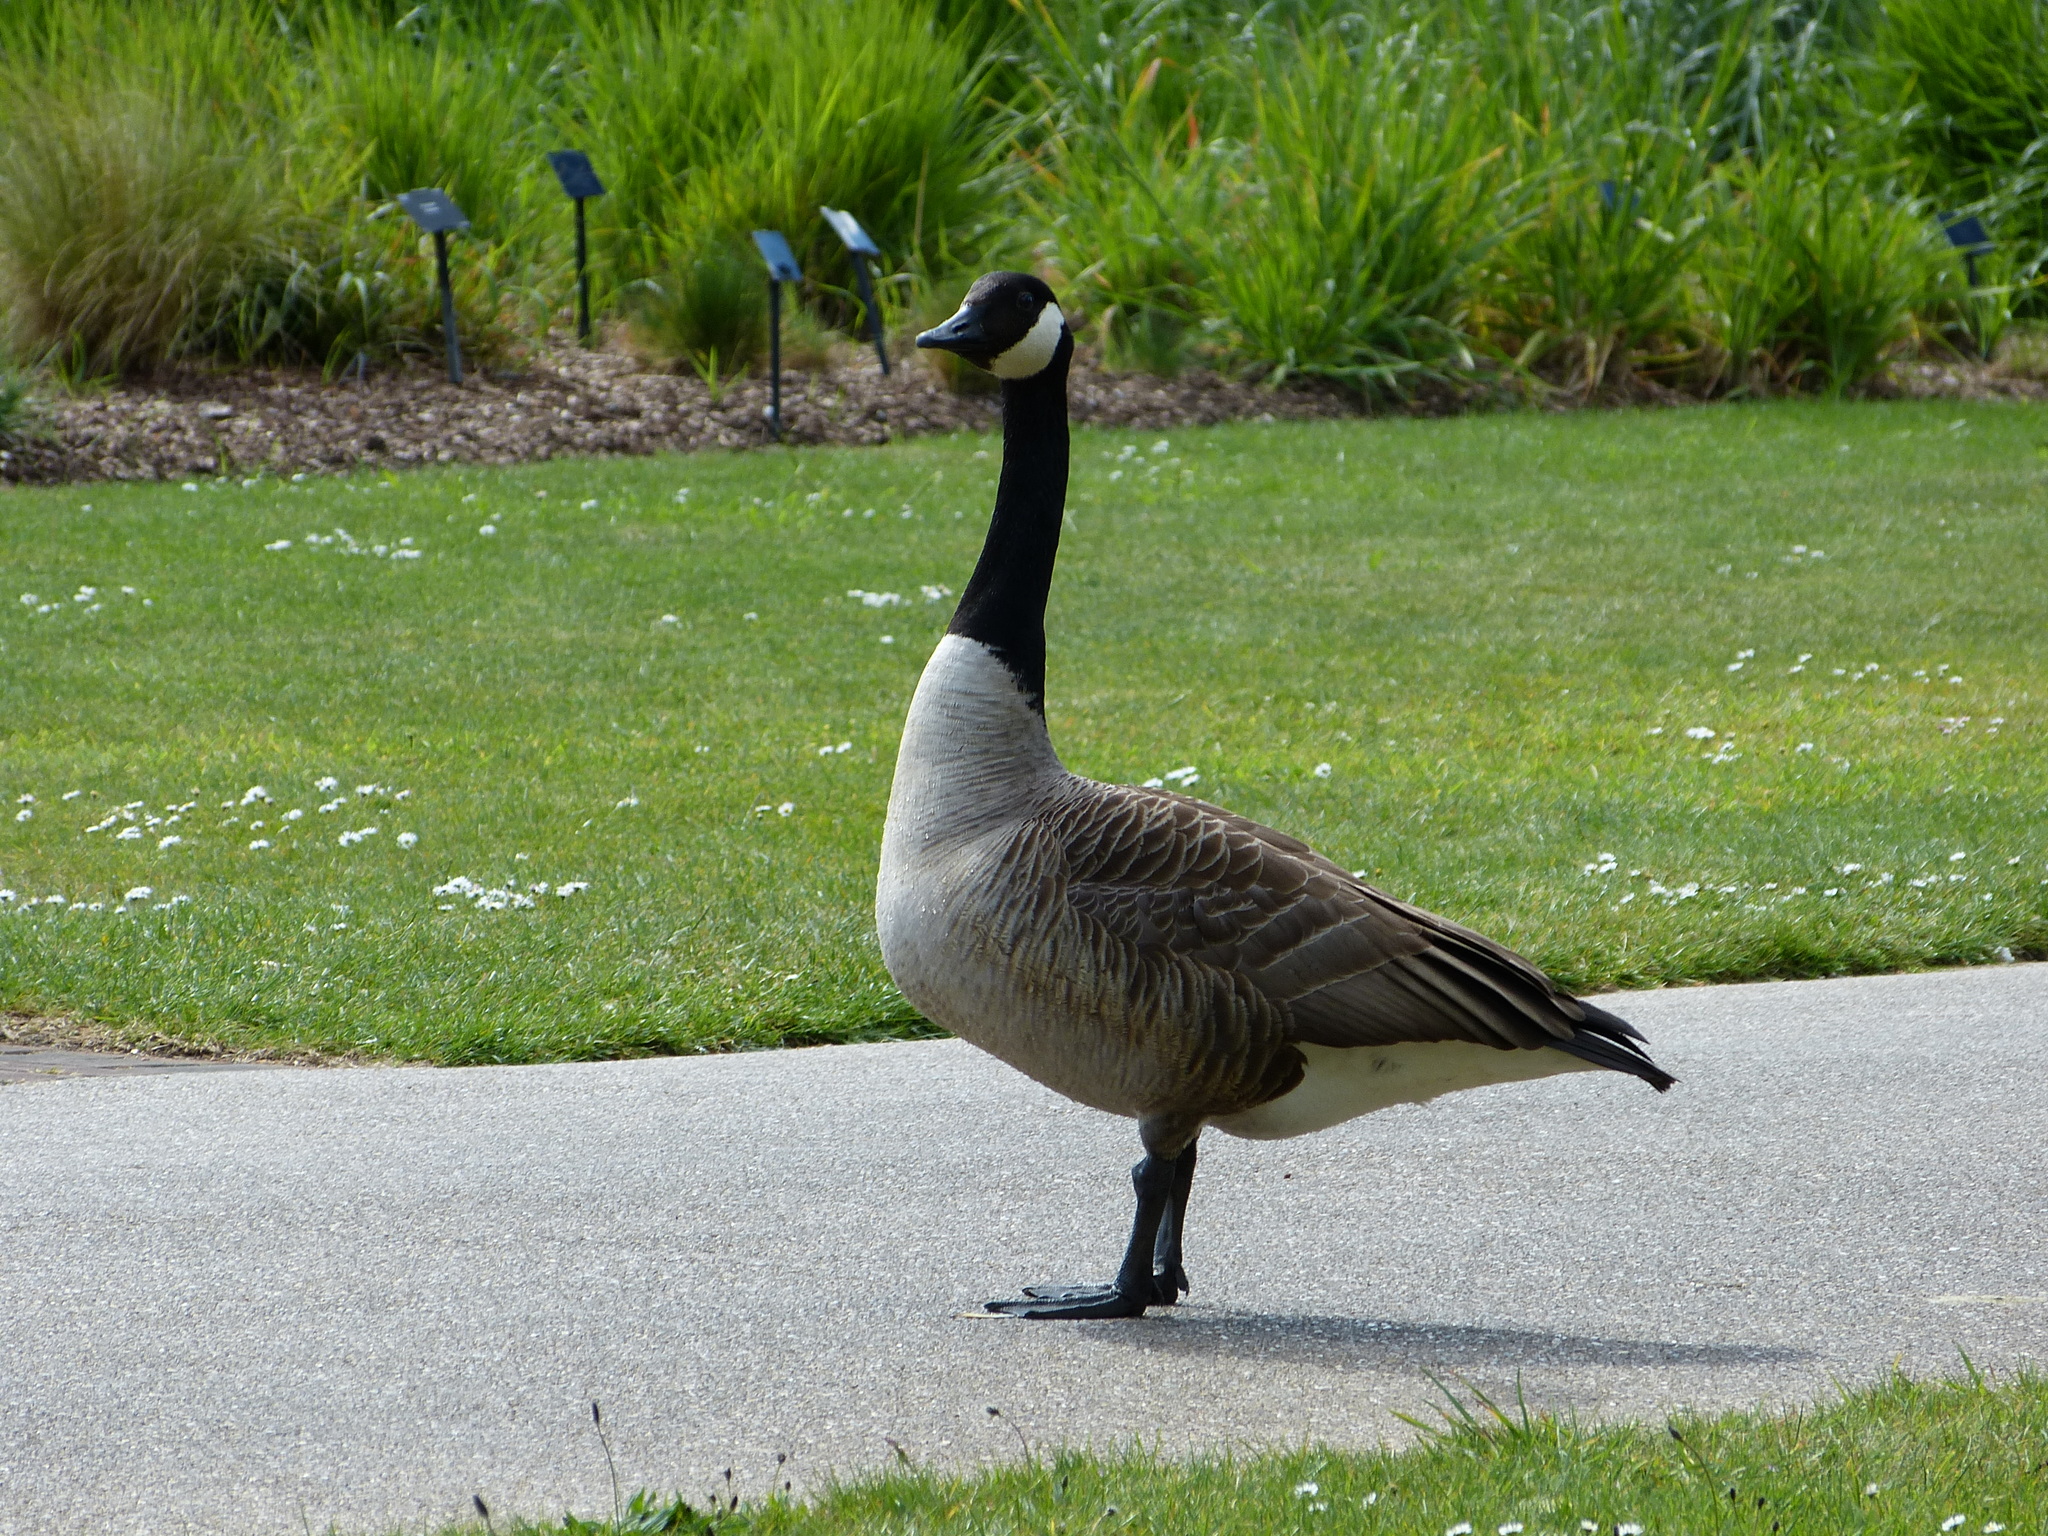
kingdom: Animalia
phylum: Chordata
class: Aves
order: Anseriformes
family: Anatidae
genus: Branta
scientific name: Branta canadensis
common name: Canada goose
